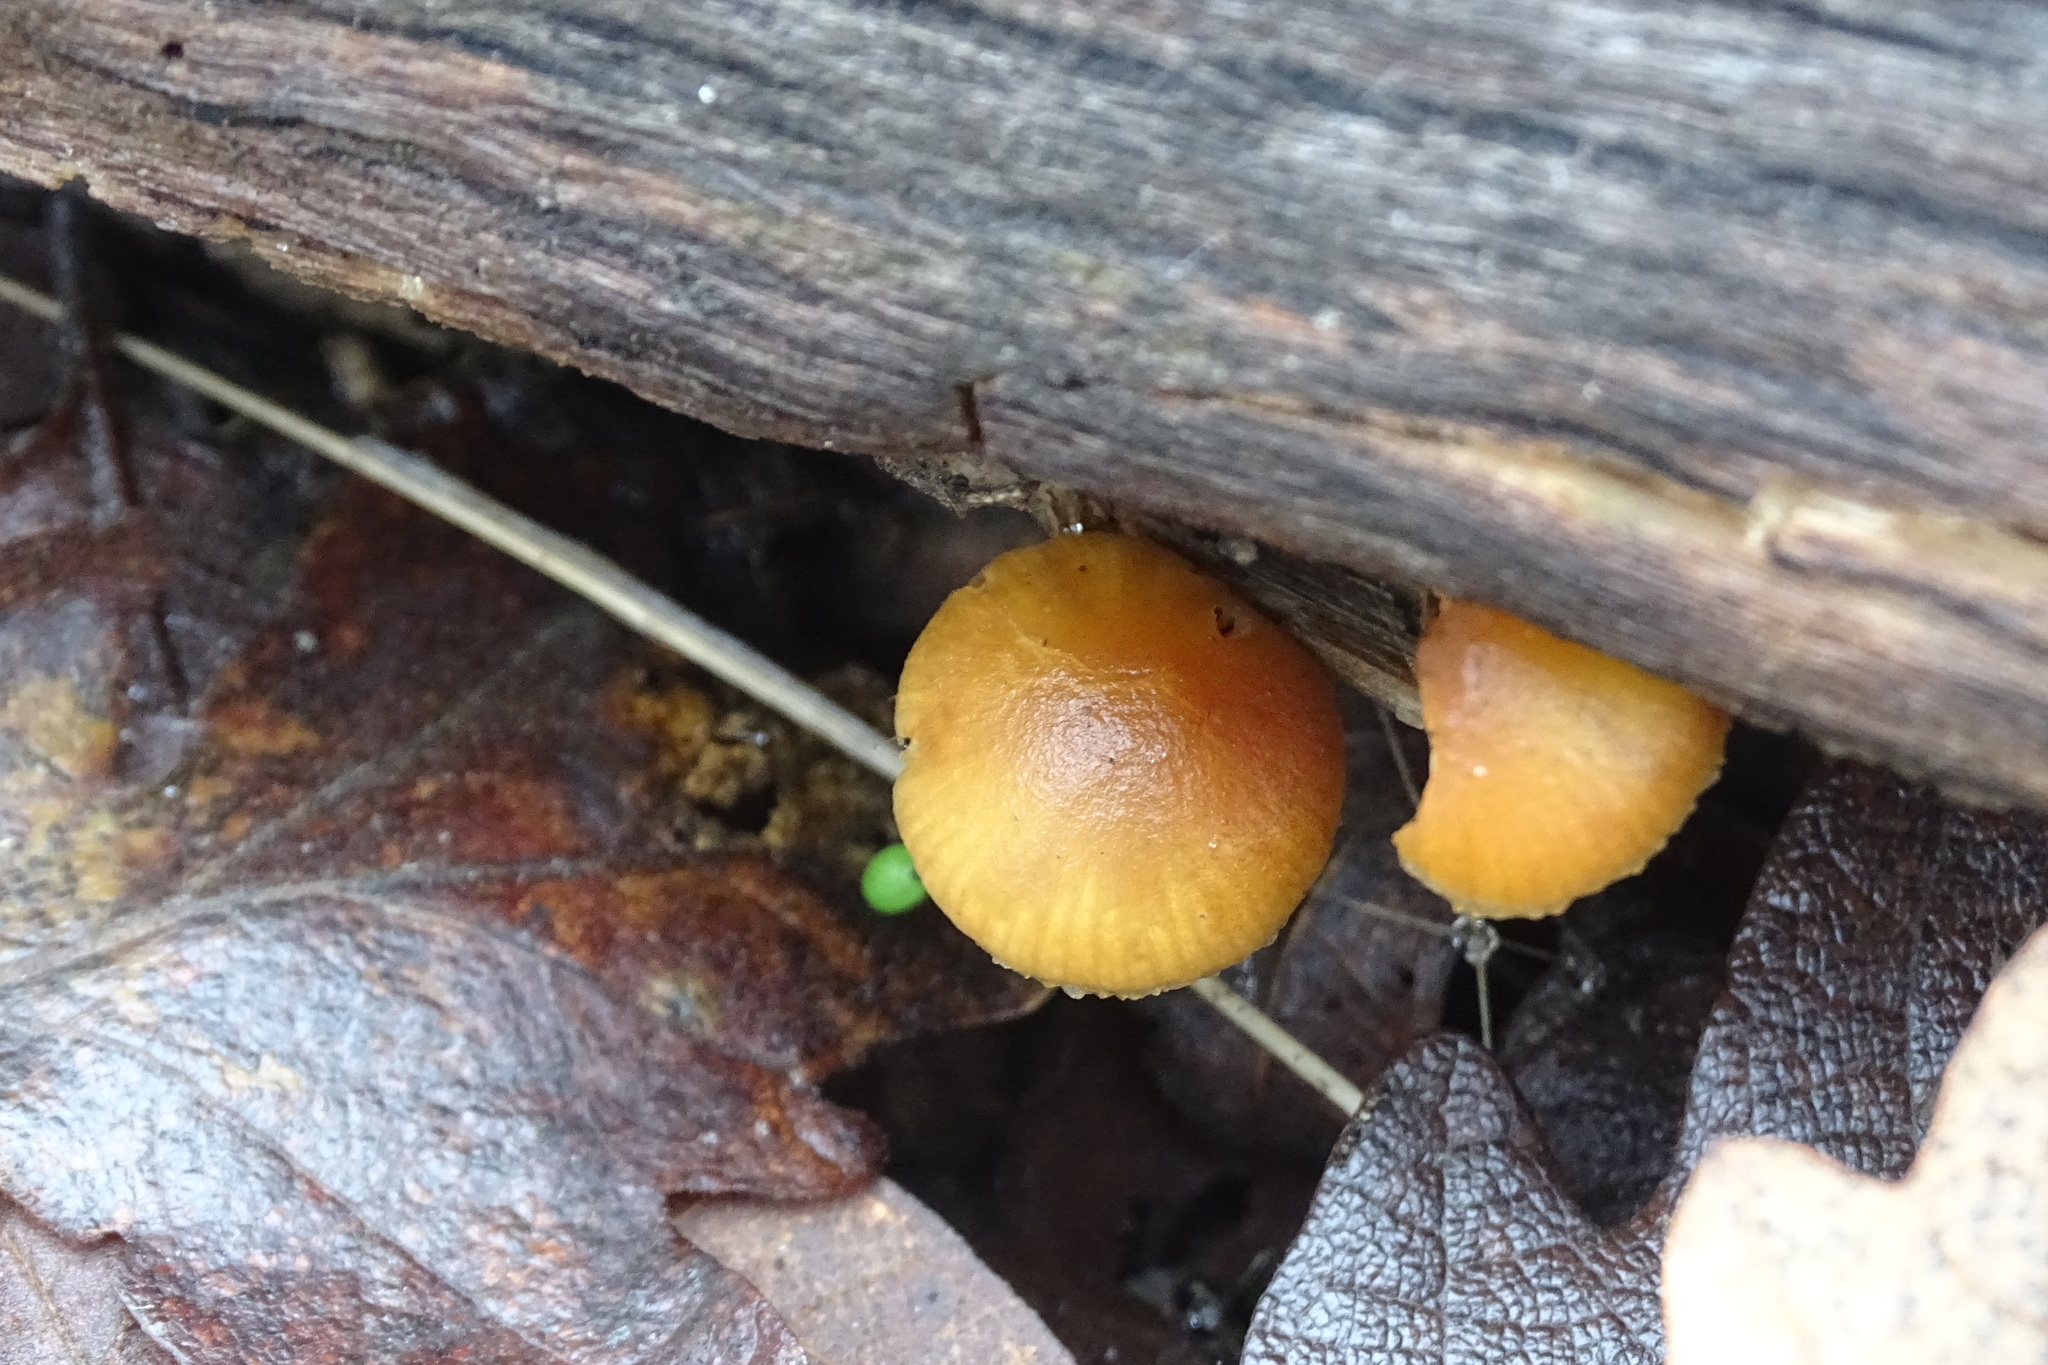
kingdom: Fungi
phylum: Basidiomycota
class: Agaricomycetes
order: Agaricales
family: Hymenogastraceae
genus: Galerina
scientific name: Galerina marginata
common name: Funeral bell
